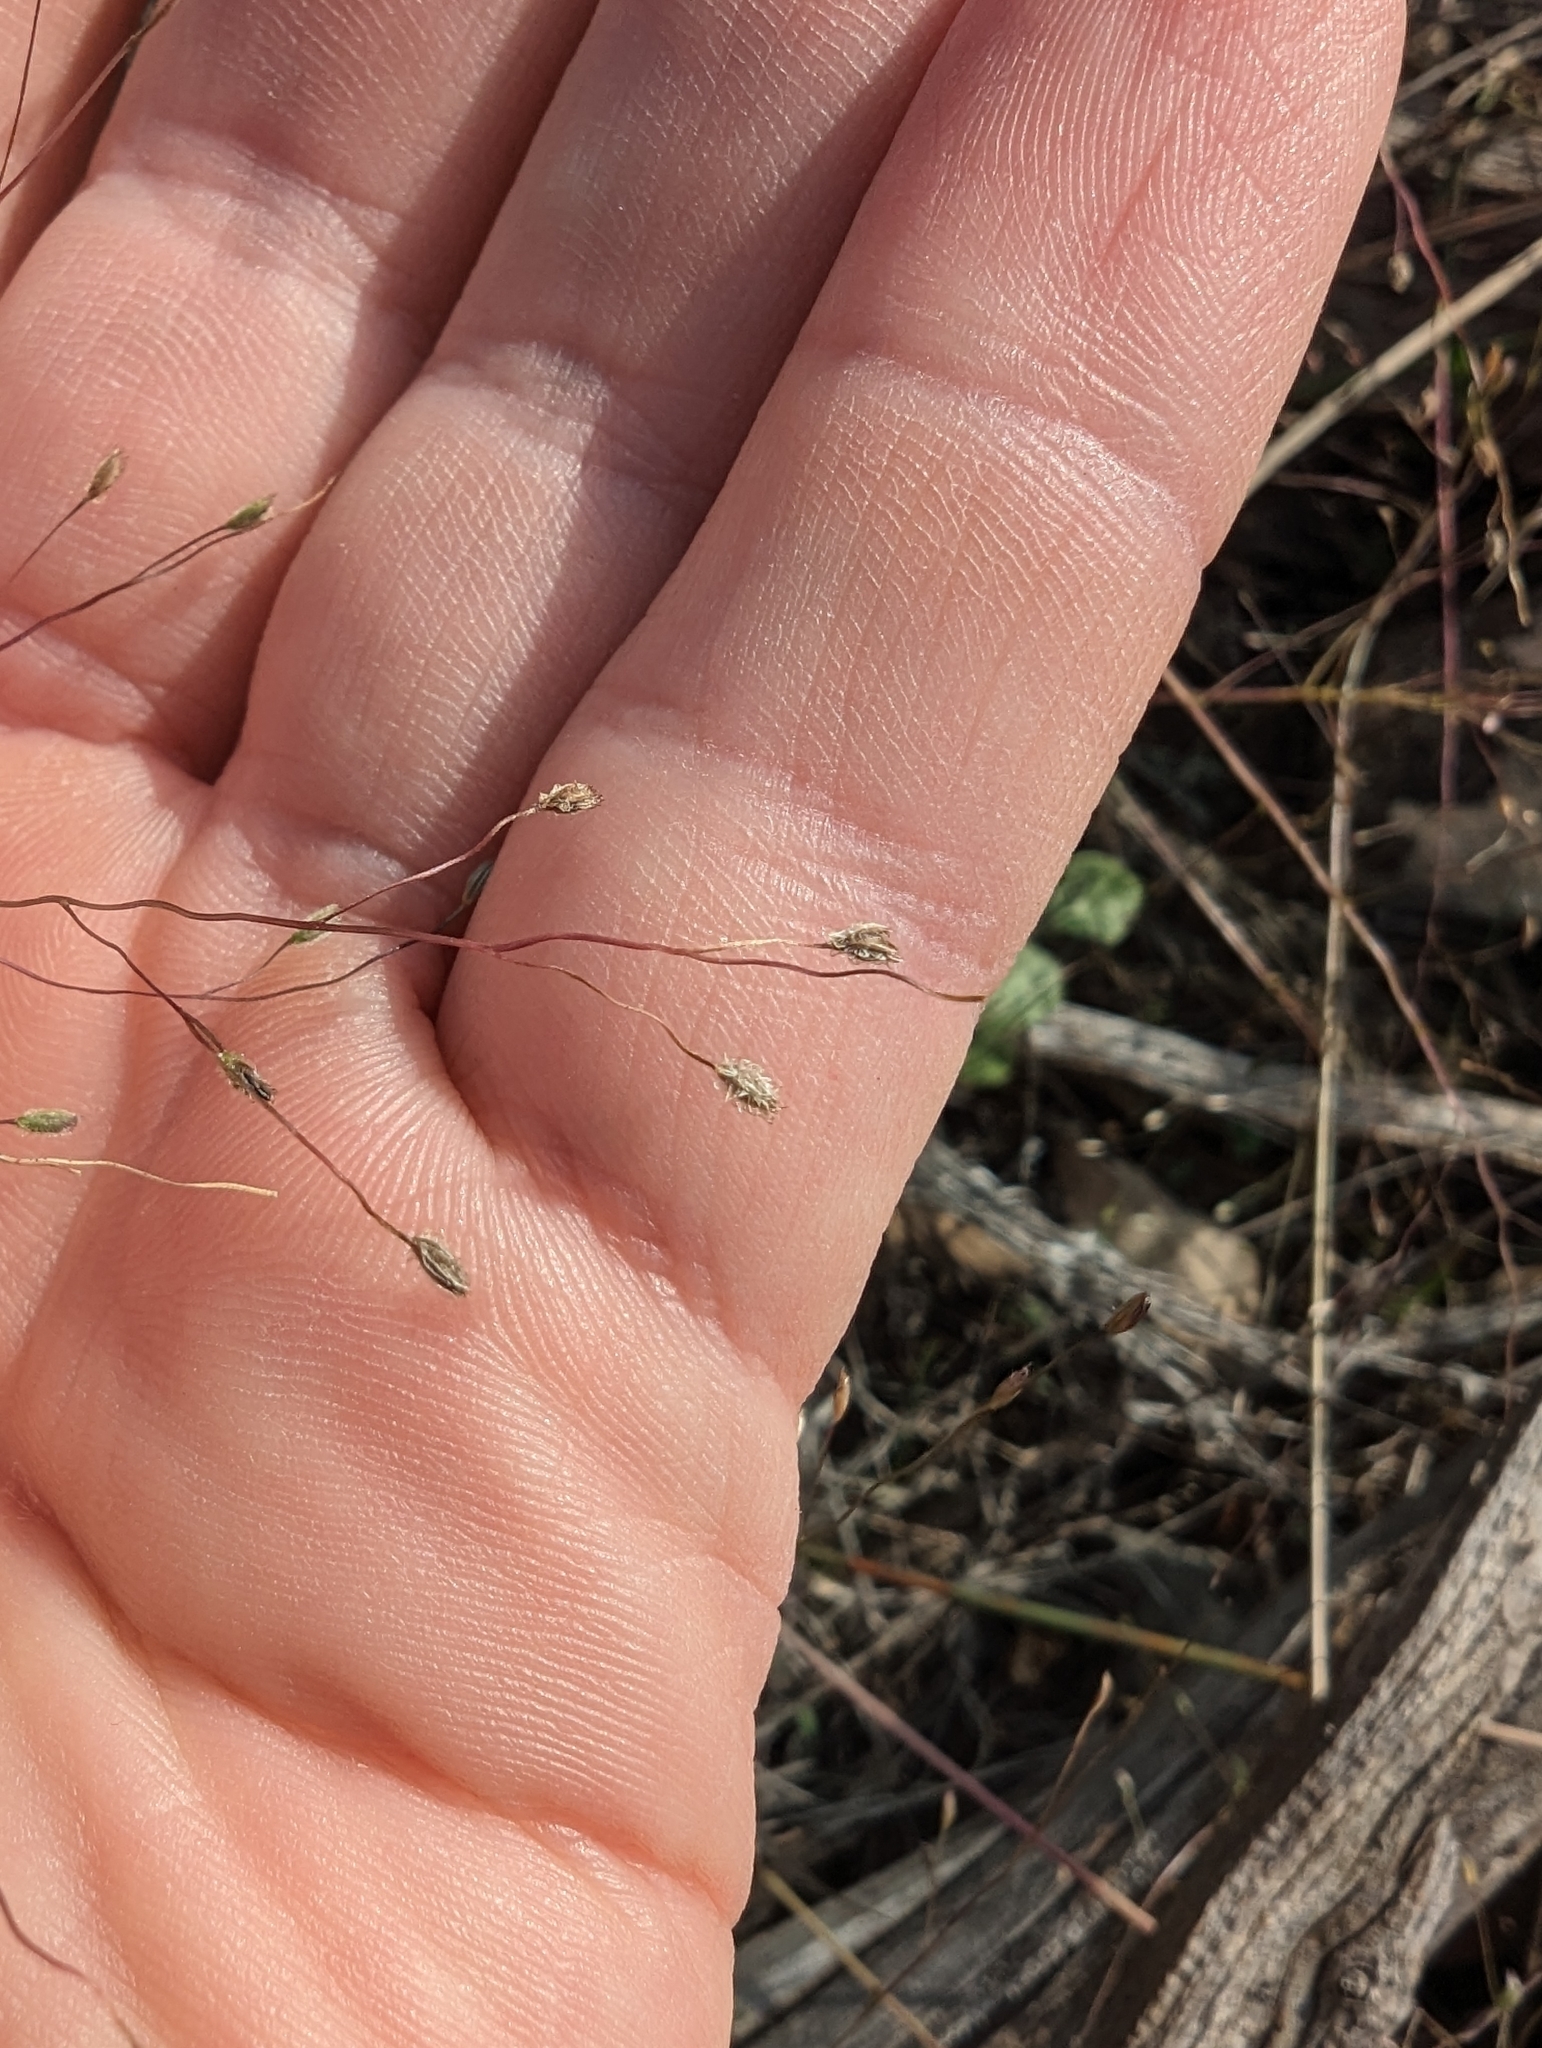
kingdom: Plantae
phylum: Tracheophyta
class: Liliopsida
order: Poales
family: Poaceae
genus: Digitaria
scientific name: Digitaria pubiflora
